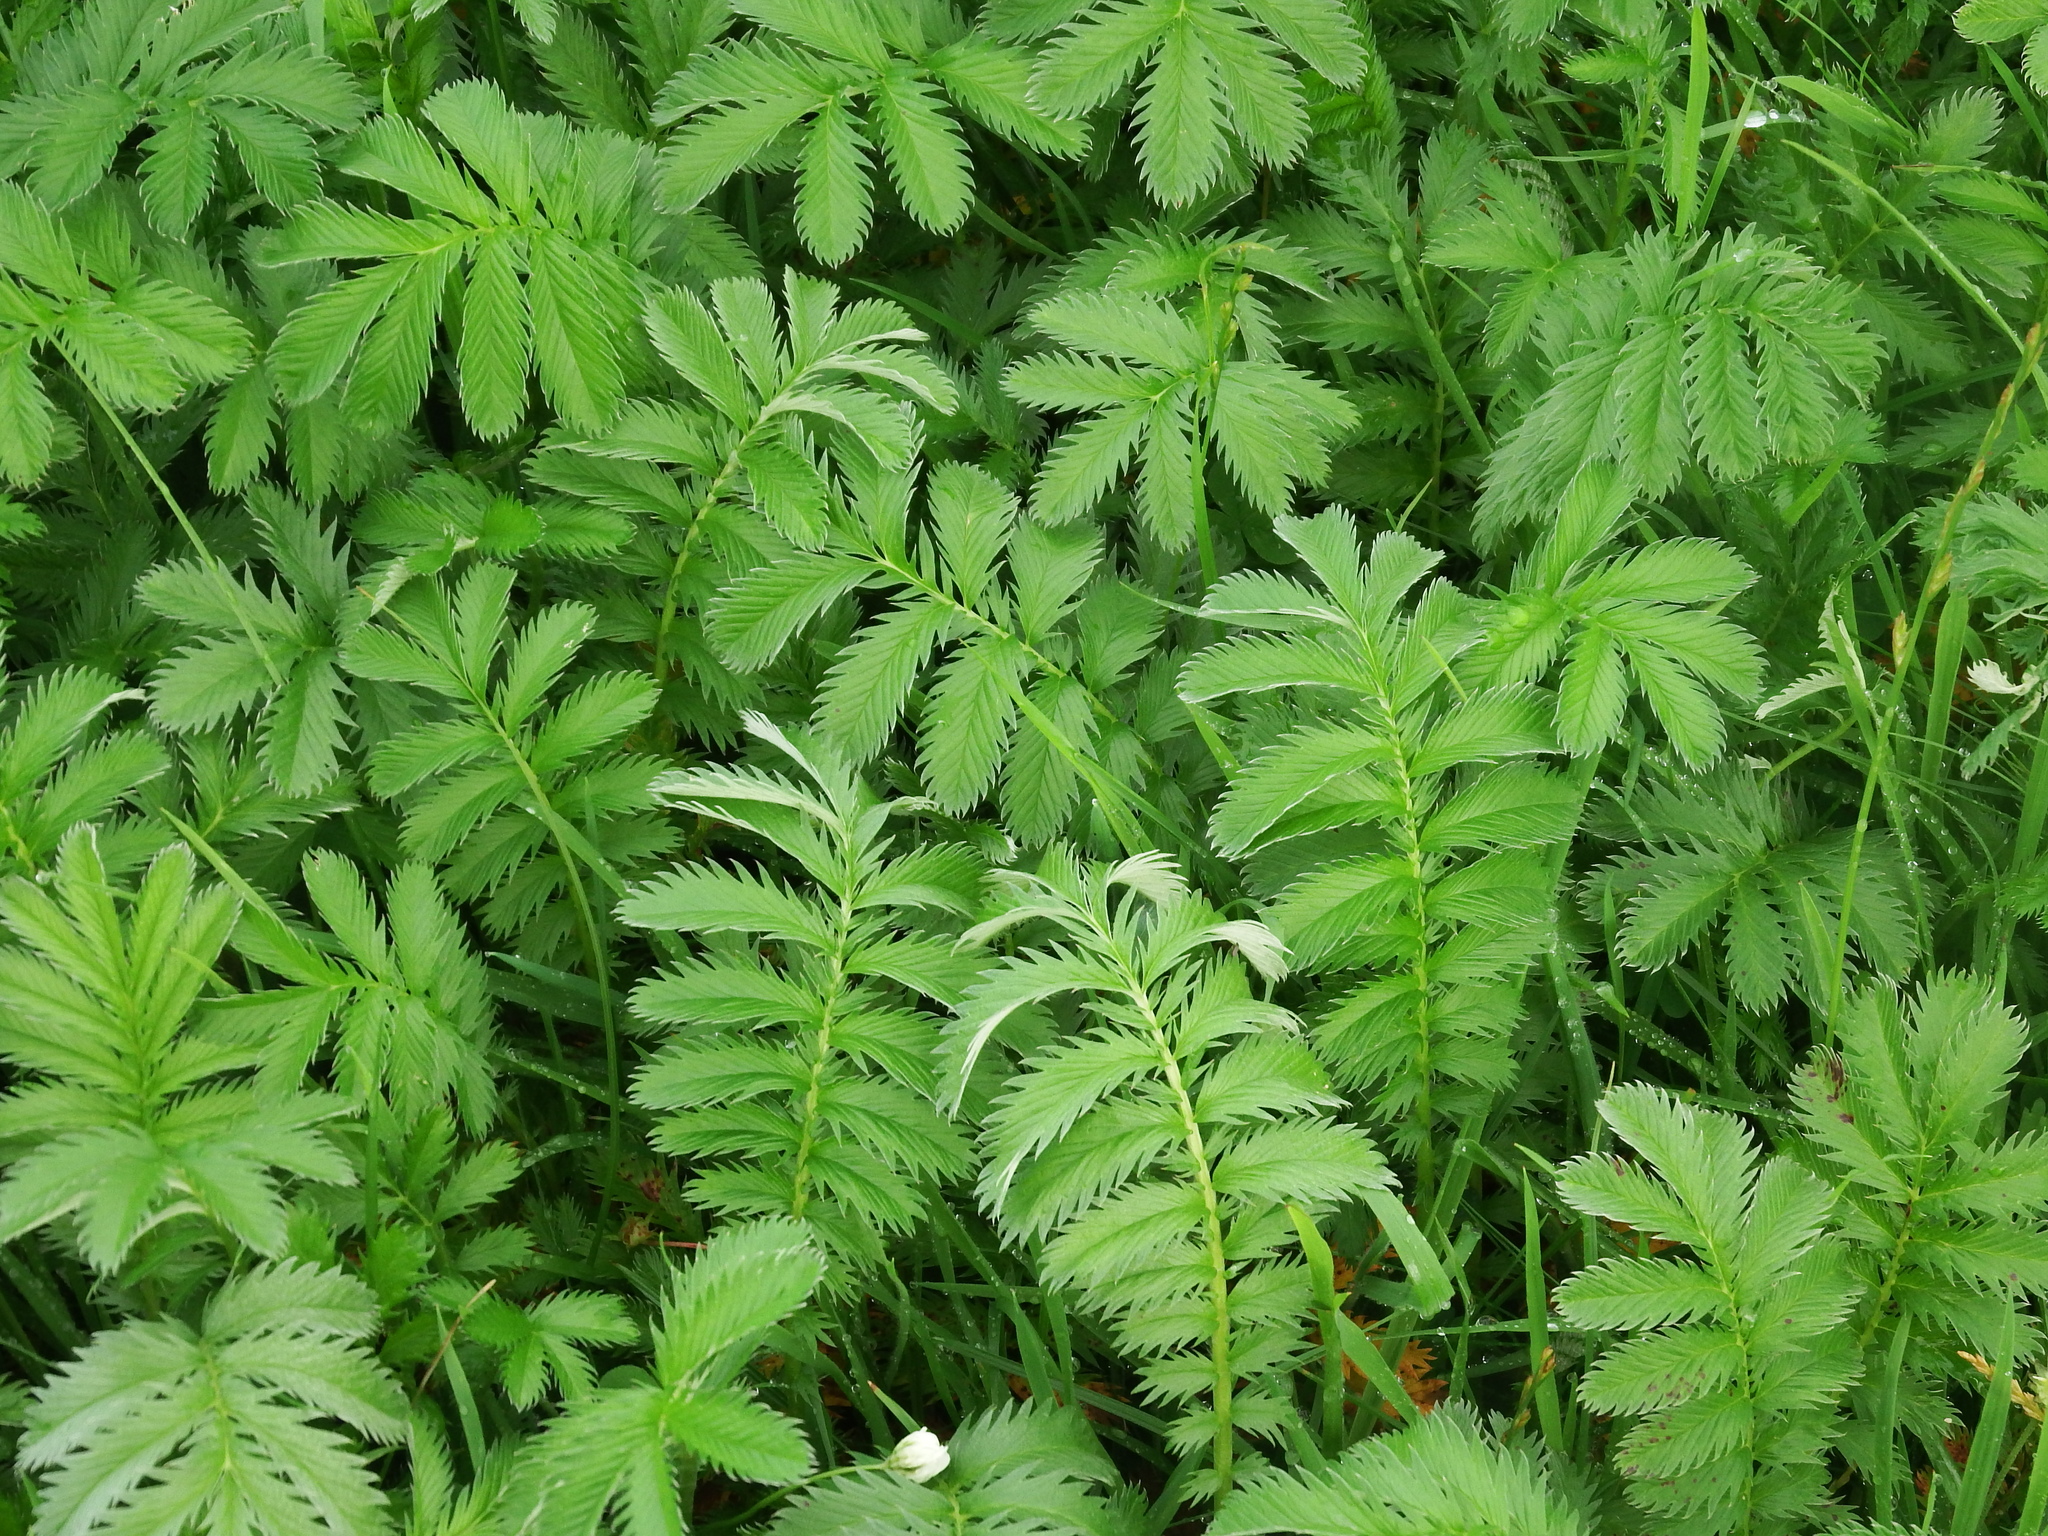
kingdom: Plantae
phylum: Tracheophyta
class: Magnoliopsida
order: Rosales
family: Rosaceae
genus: Argentina
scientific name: Argentina anserina
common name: Common silverweed
